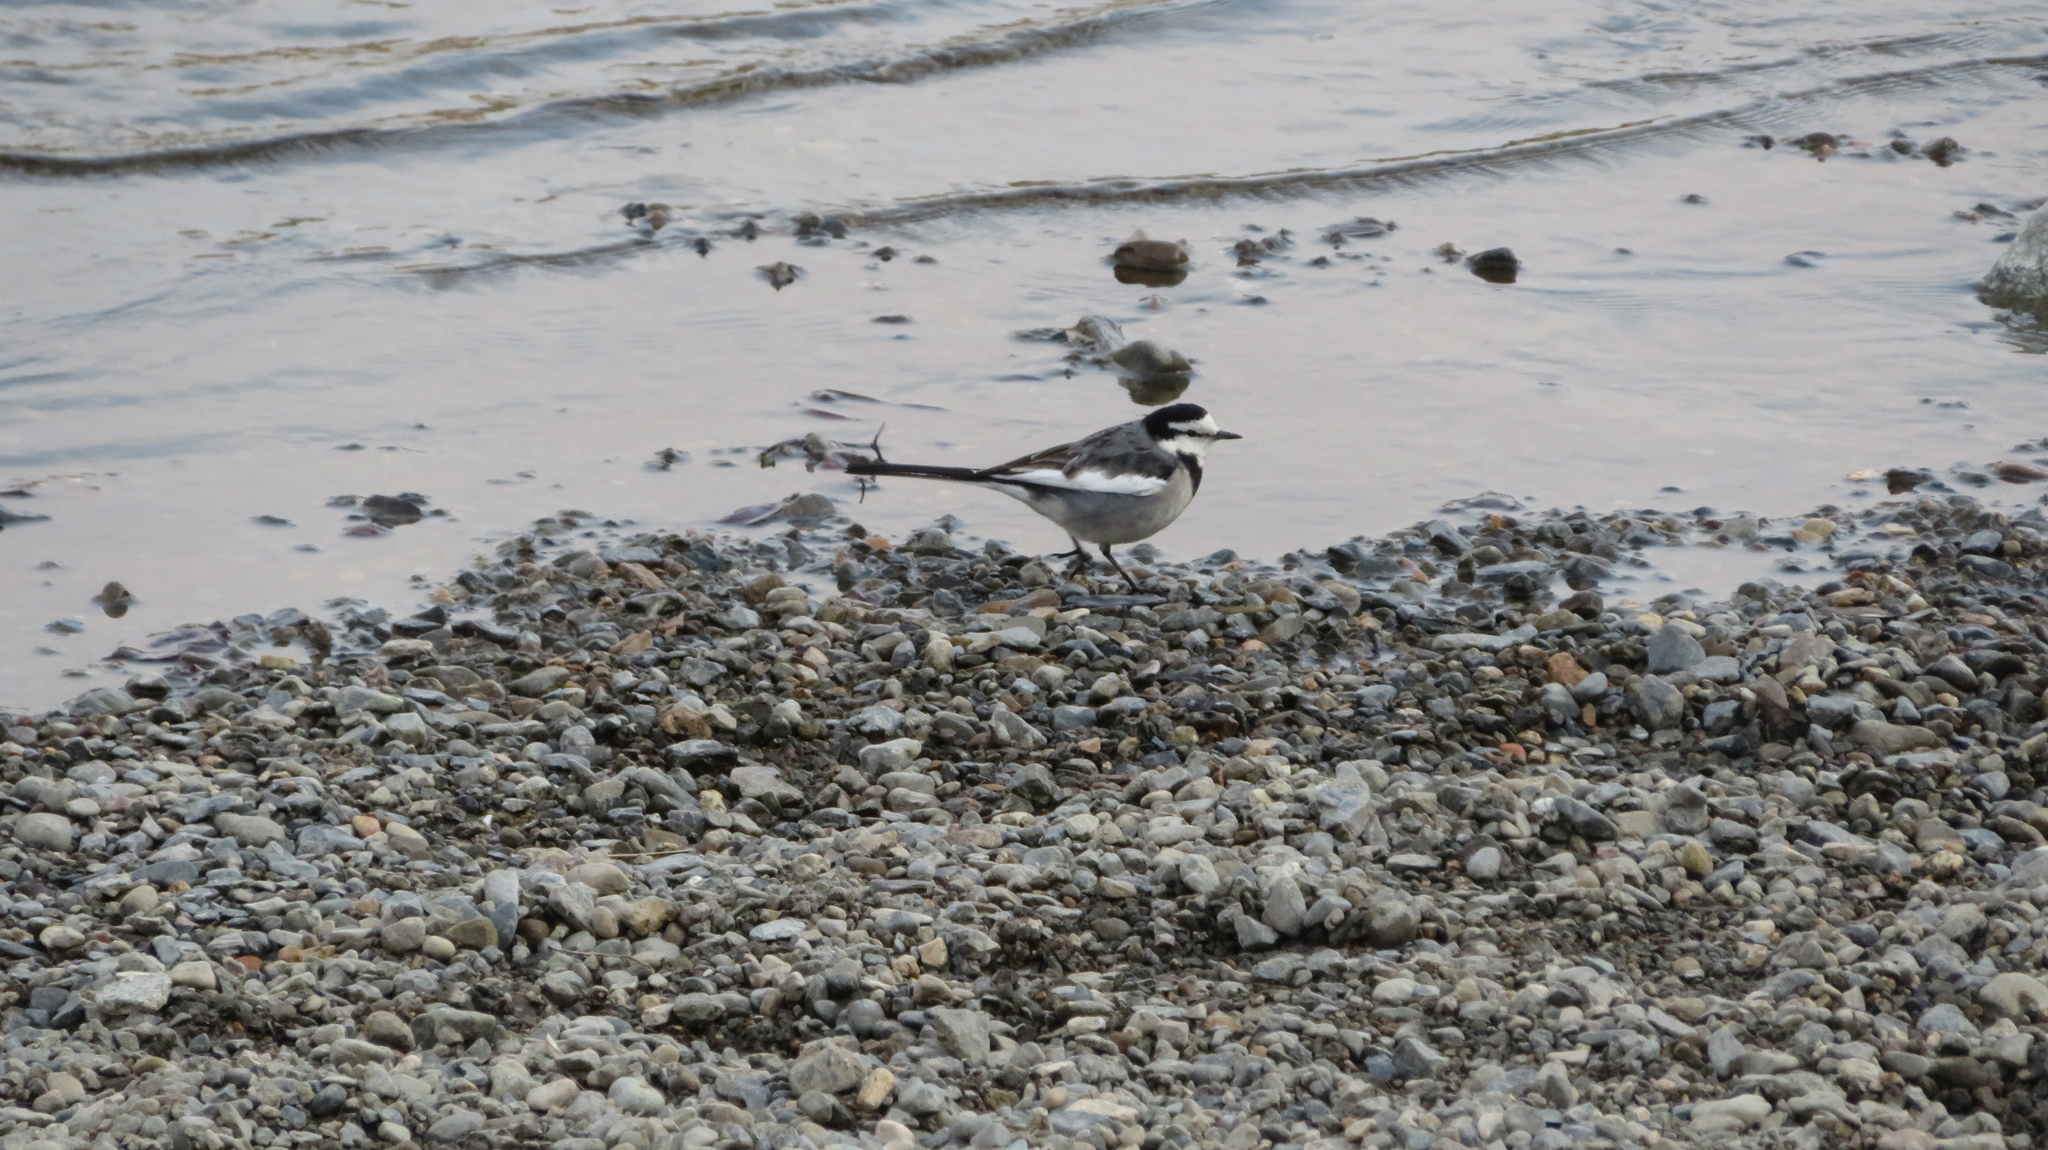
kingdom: Animalia
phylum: Chordata
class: Aves
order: Passeriformes
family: Motacillidae
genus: Motacilla
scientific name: Motacilla alba
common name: White wagtail
